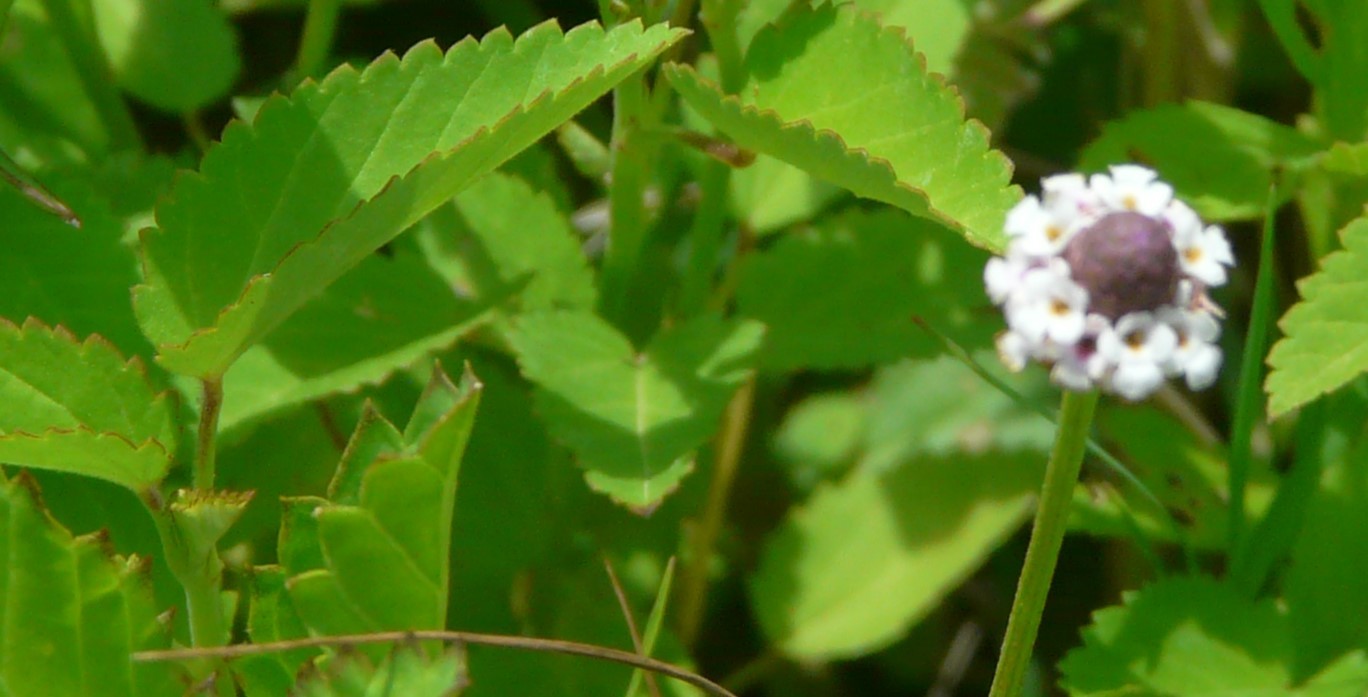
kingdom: Plantae
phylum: Tracheophyta
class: Magnoliopsida
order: Lamiales
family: Verbenaceae
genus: Phyla
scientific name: Phyla lanceolata
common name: Northern fogfruit
